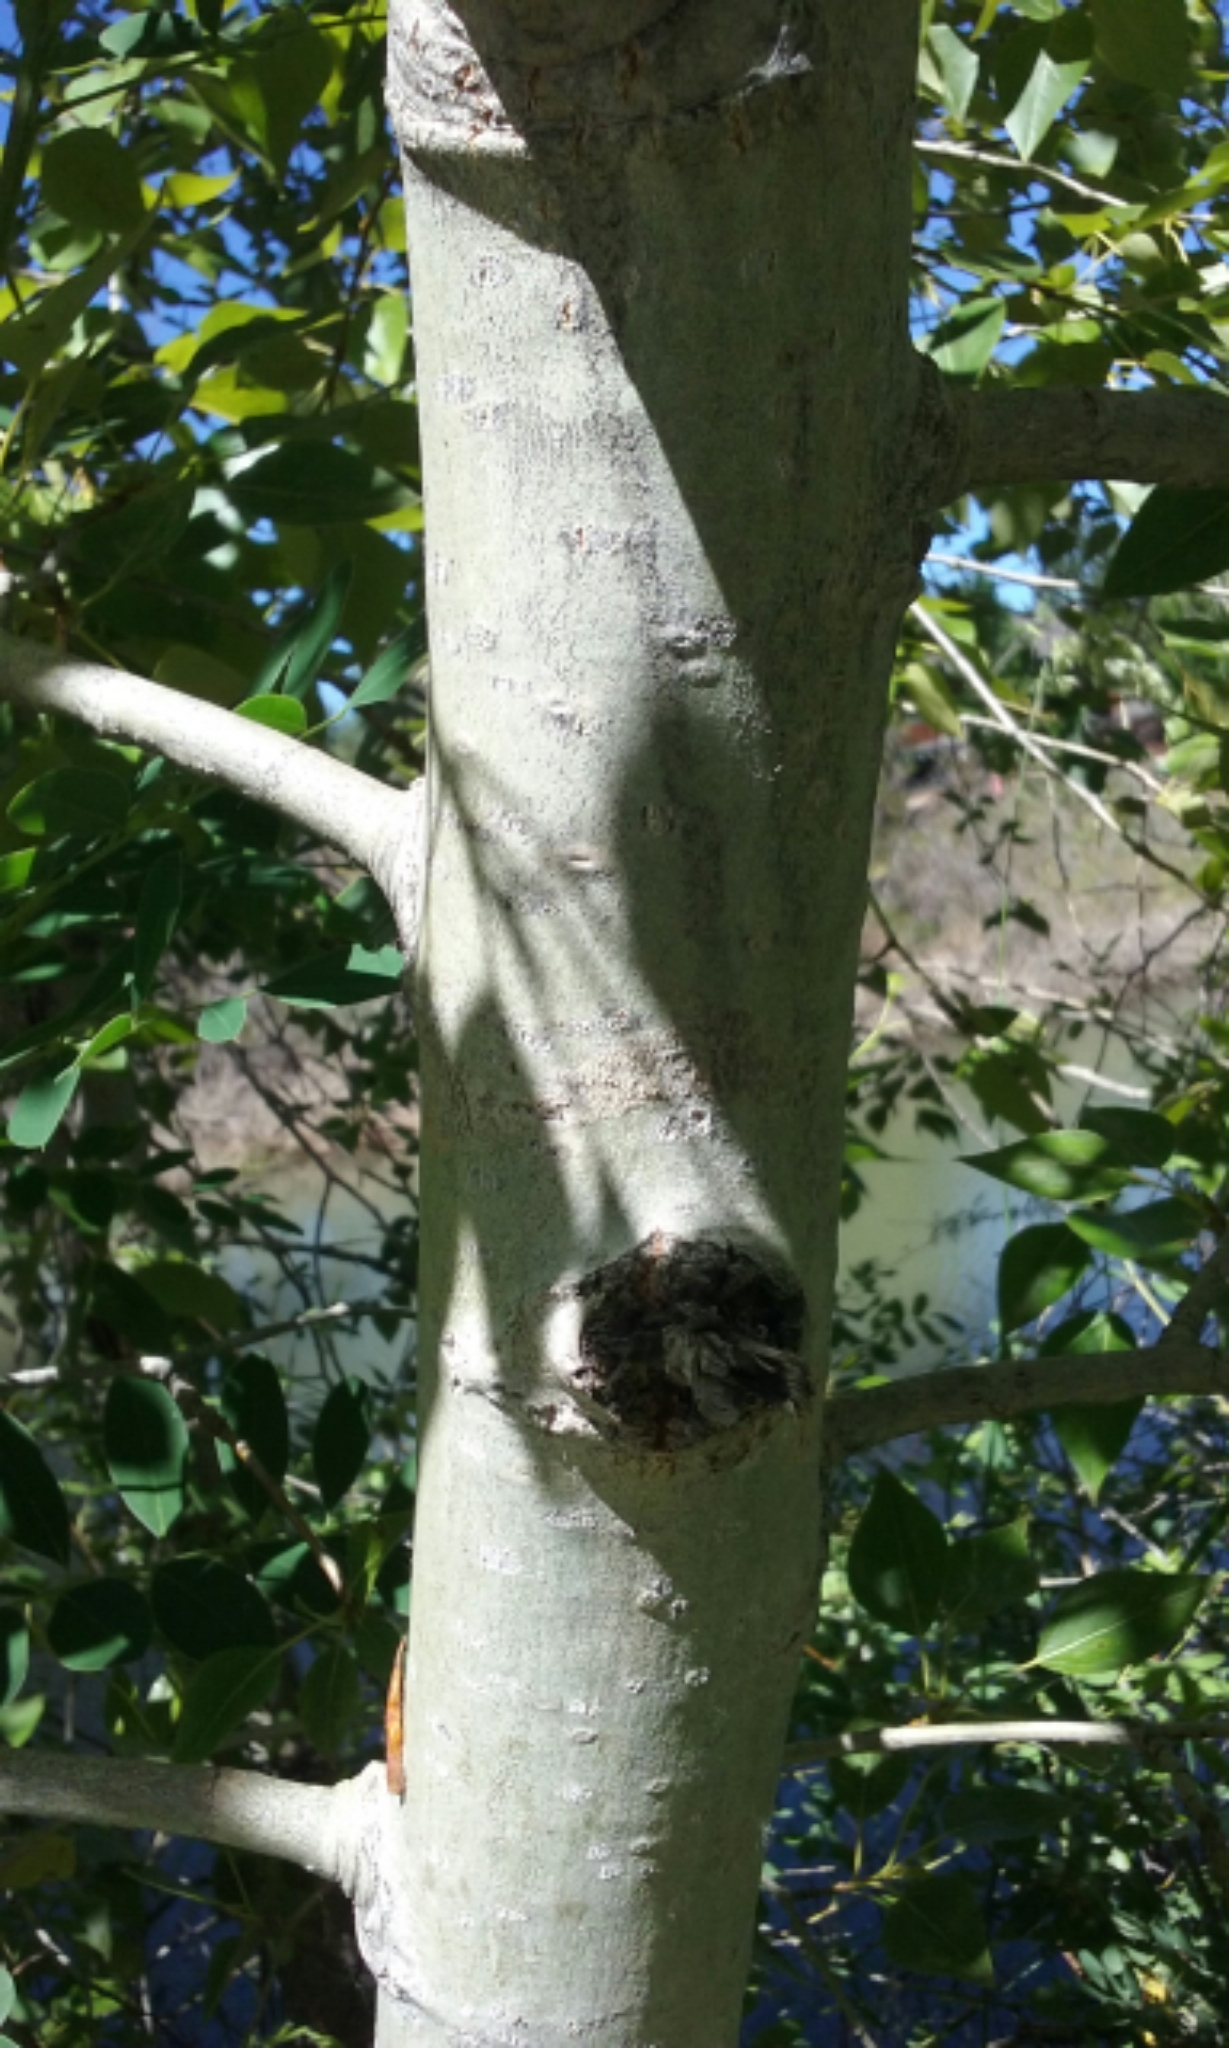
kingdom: Plantae
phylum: Tracheophyta
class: Magnoliopsida
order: Malpighiales
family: Salicaceae
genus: Populus
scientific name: Populus trichocarpa
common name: Black cottonwood
